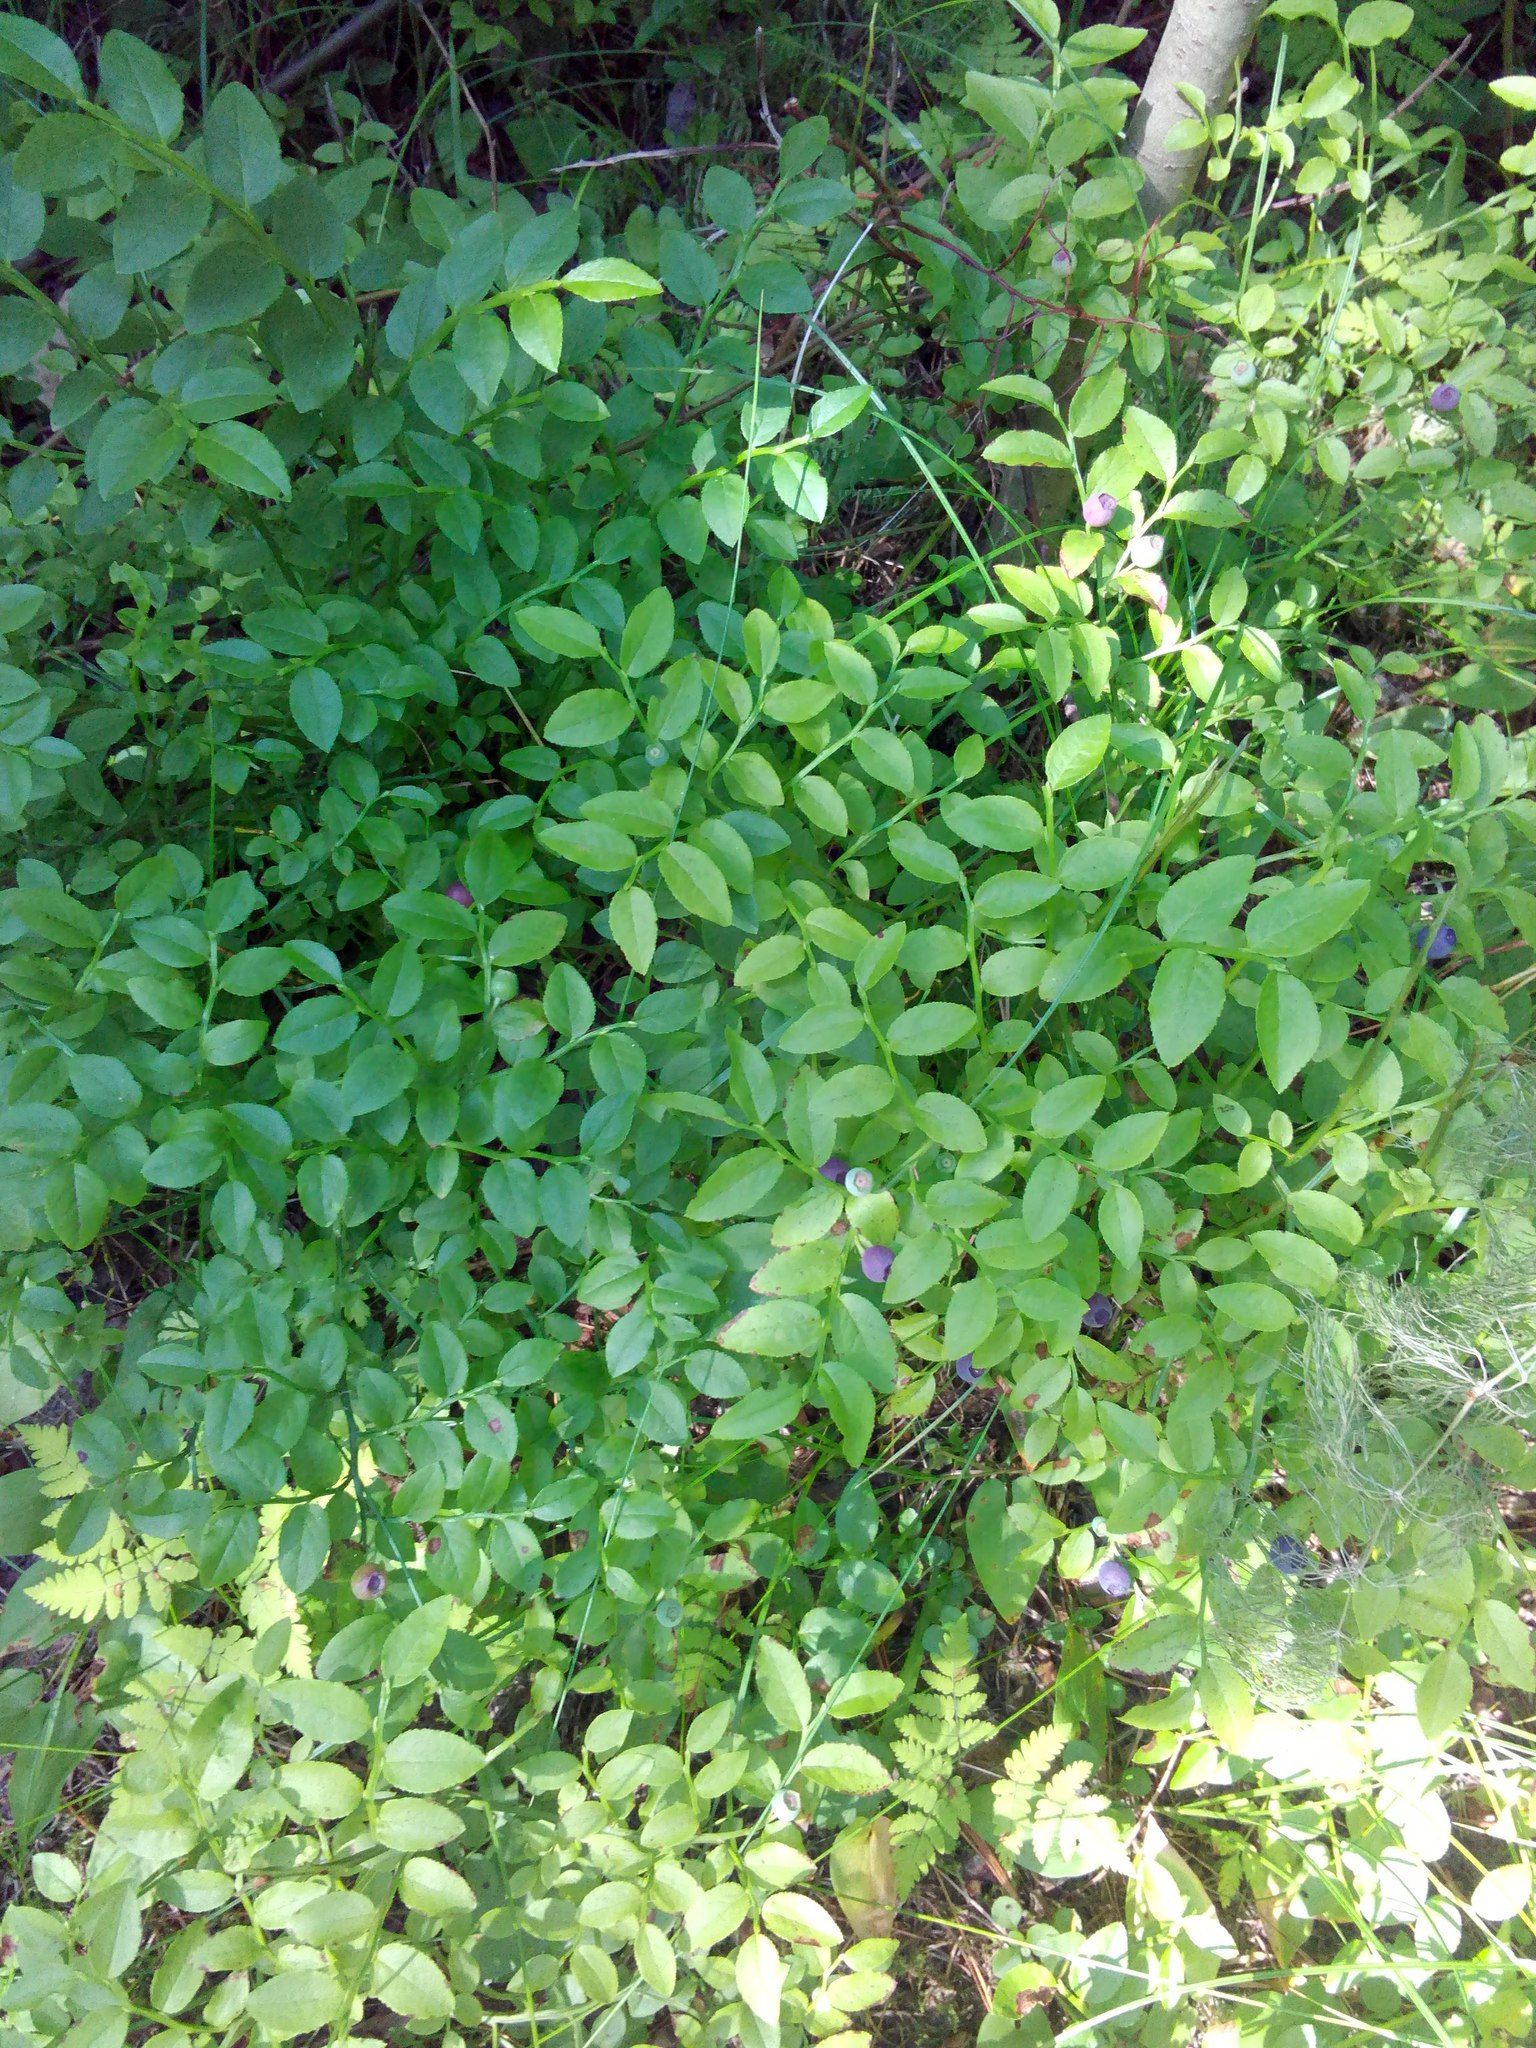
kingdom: Plantae
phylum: Tracheophyta
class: Magnoliopsida
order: Ericales
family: Ericaceae
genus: Vaccinium
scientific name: Vaccinium myrtillus
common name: Bilberry
